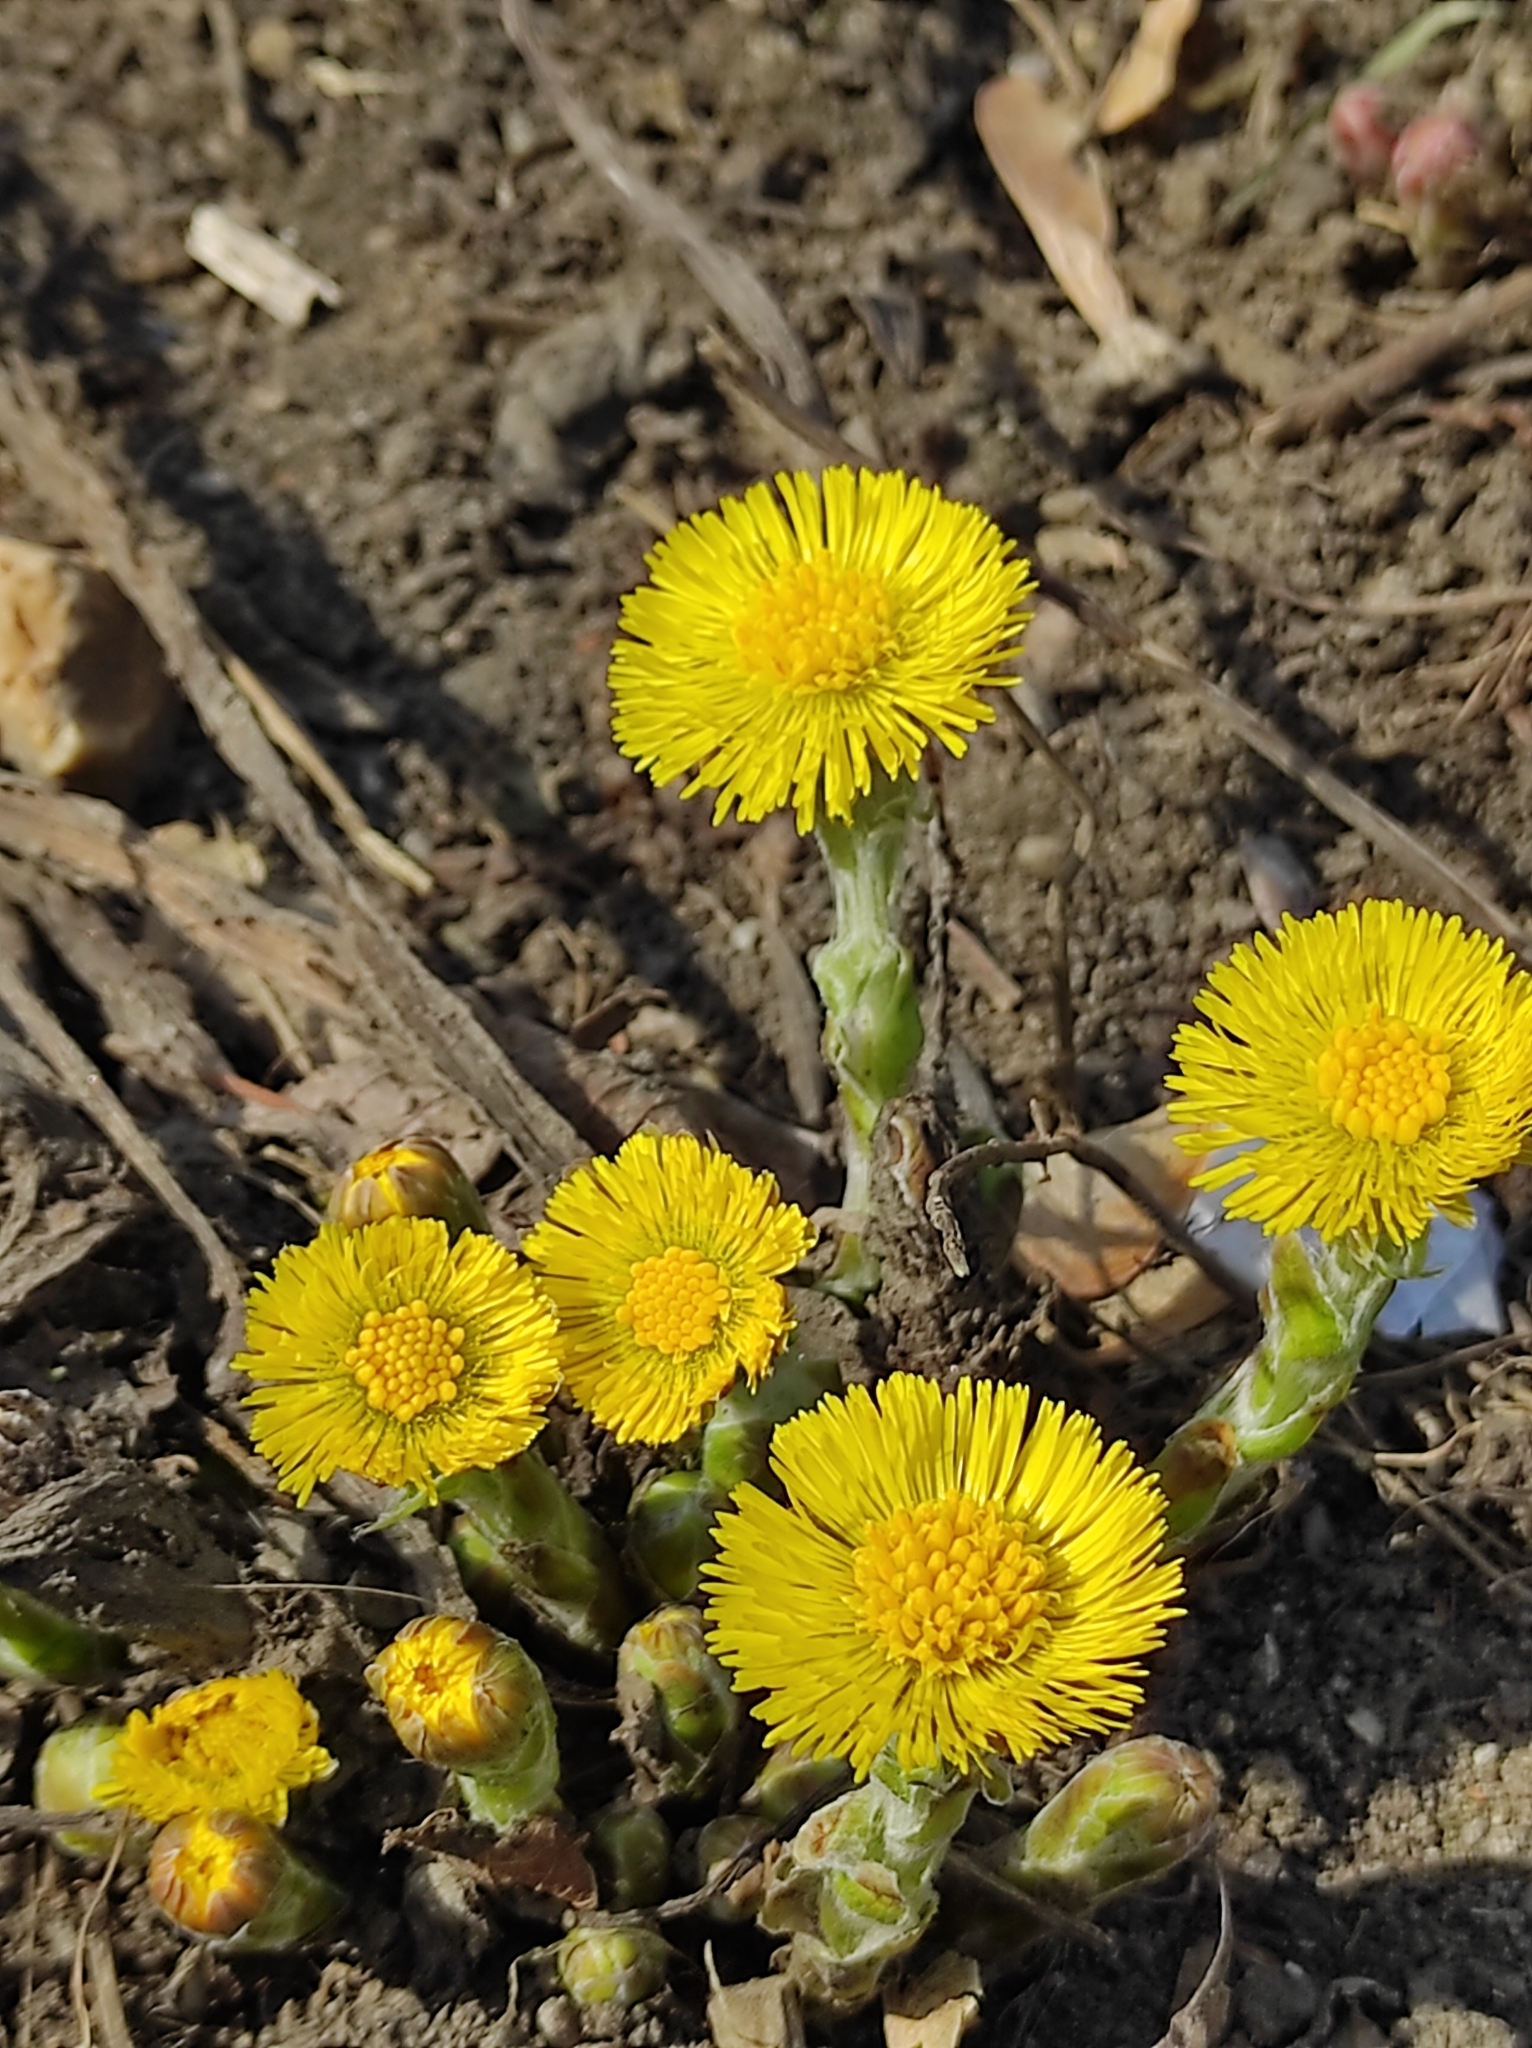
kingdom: Plantae
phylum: Tracheophyta
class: Magnoliopsida
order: Asterales
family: Asteraceae
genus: Tussilago
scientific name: Tussilago farfara
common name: Coltsfoot
